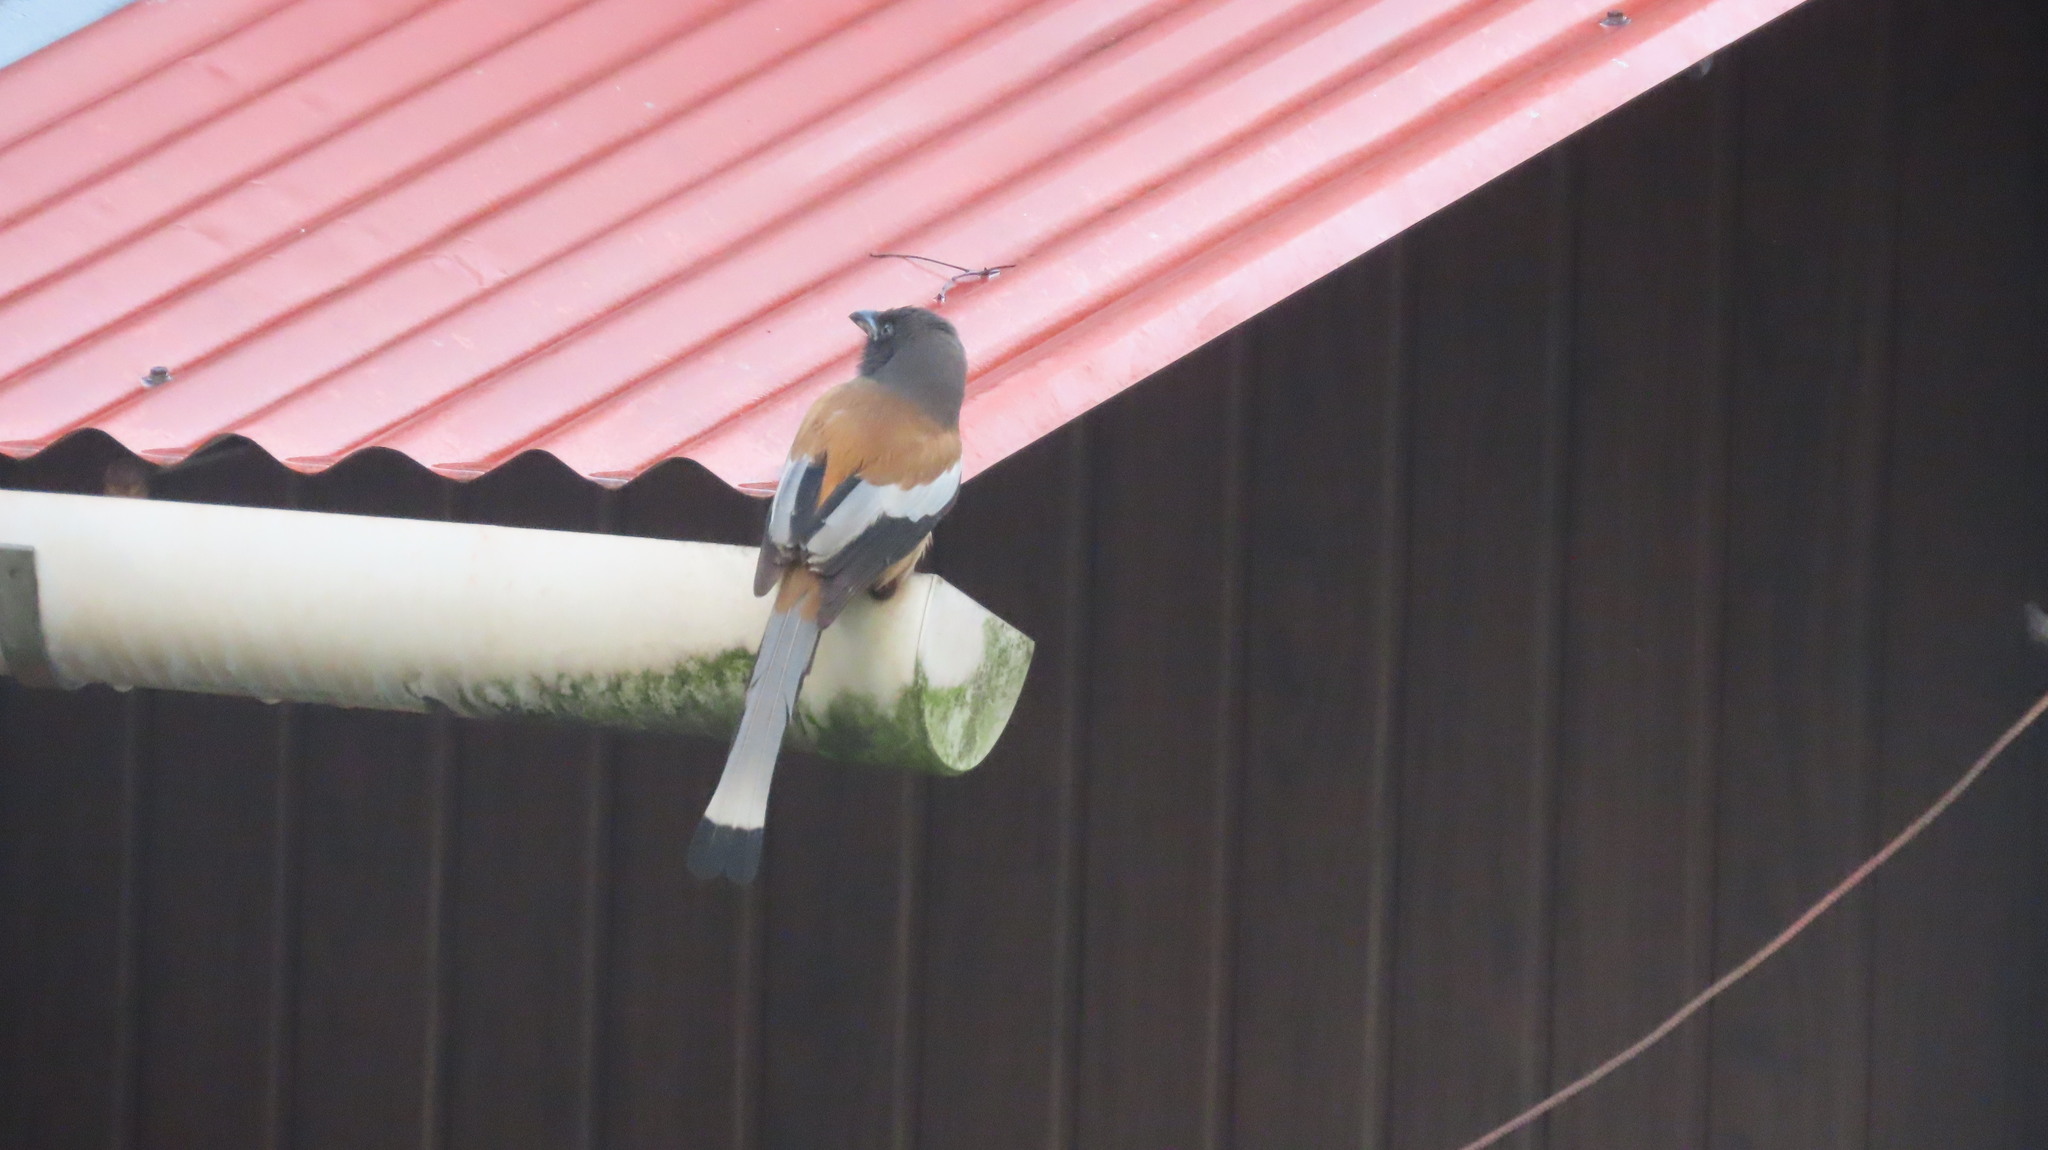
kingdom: Animalia
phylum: Chordata
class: Aves
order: Passeriformes
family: Corvidae
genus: Dendrocitta
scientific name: Dendrocitta vagabunda
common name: Rufous treepie
